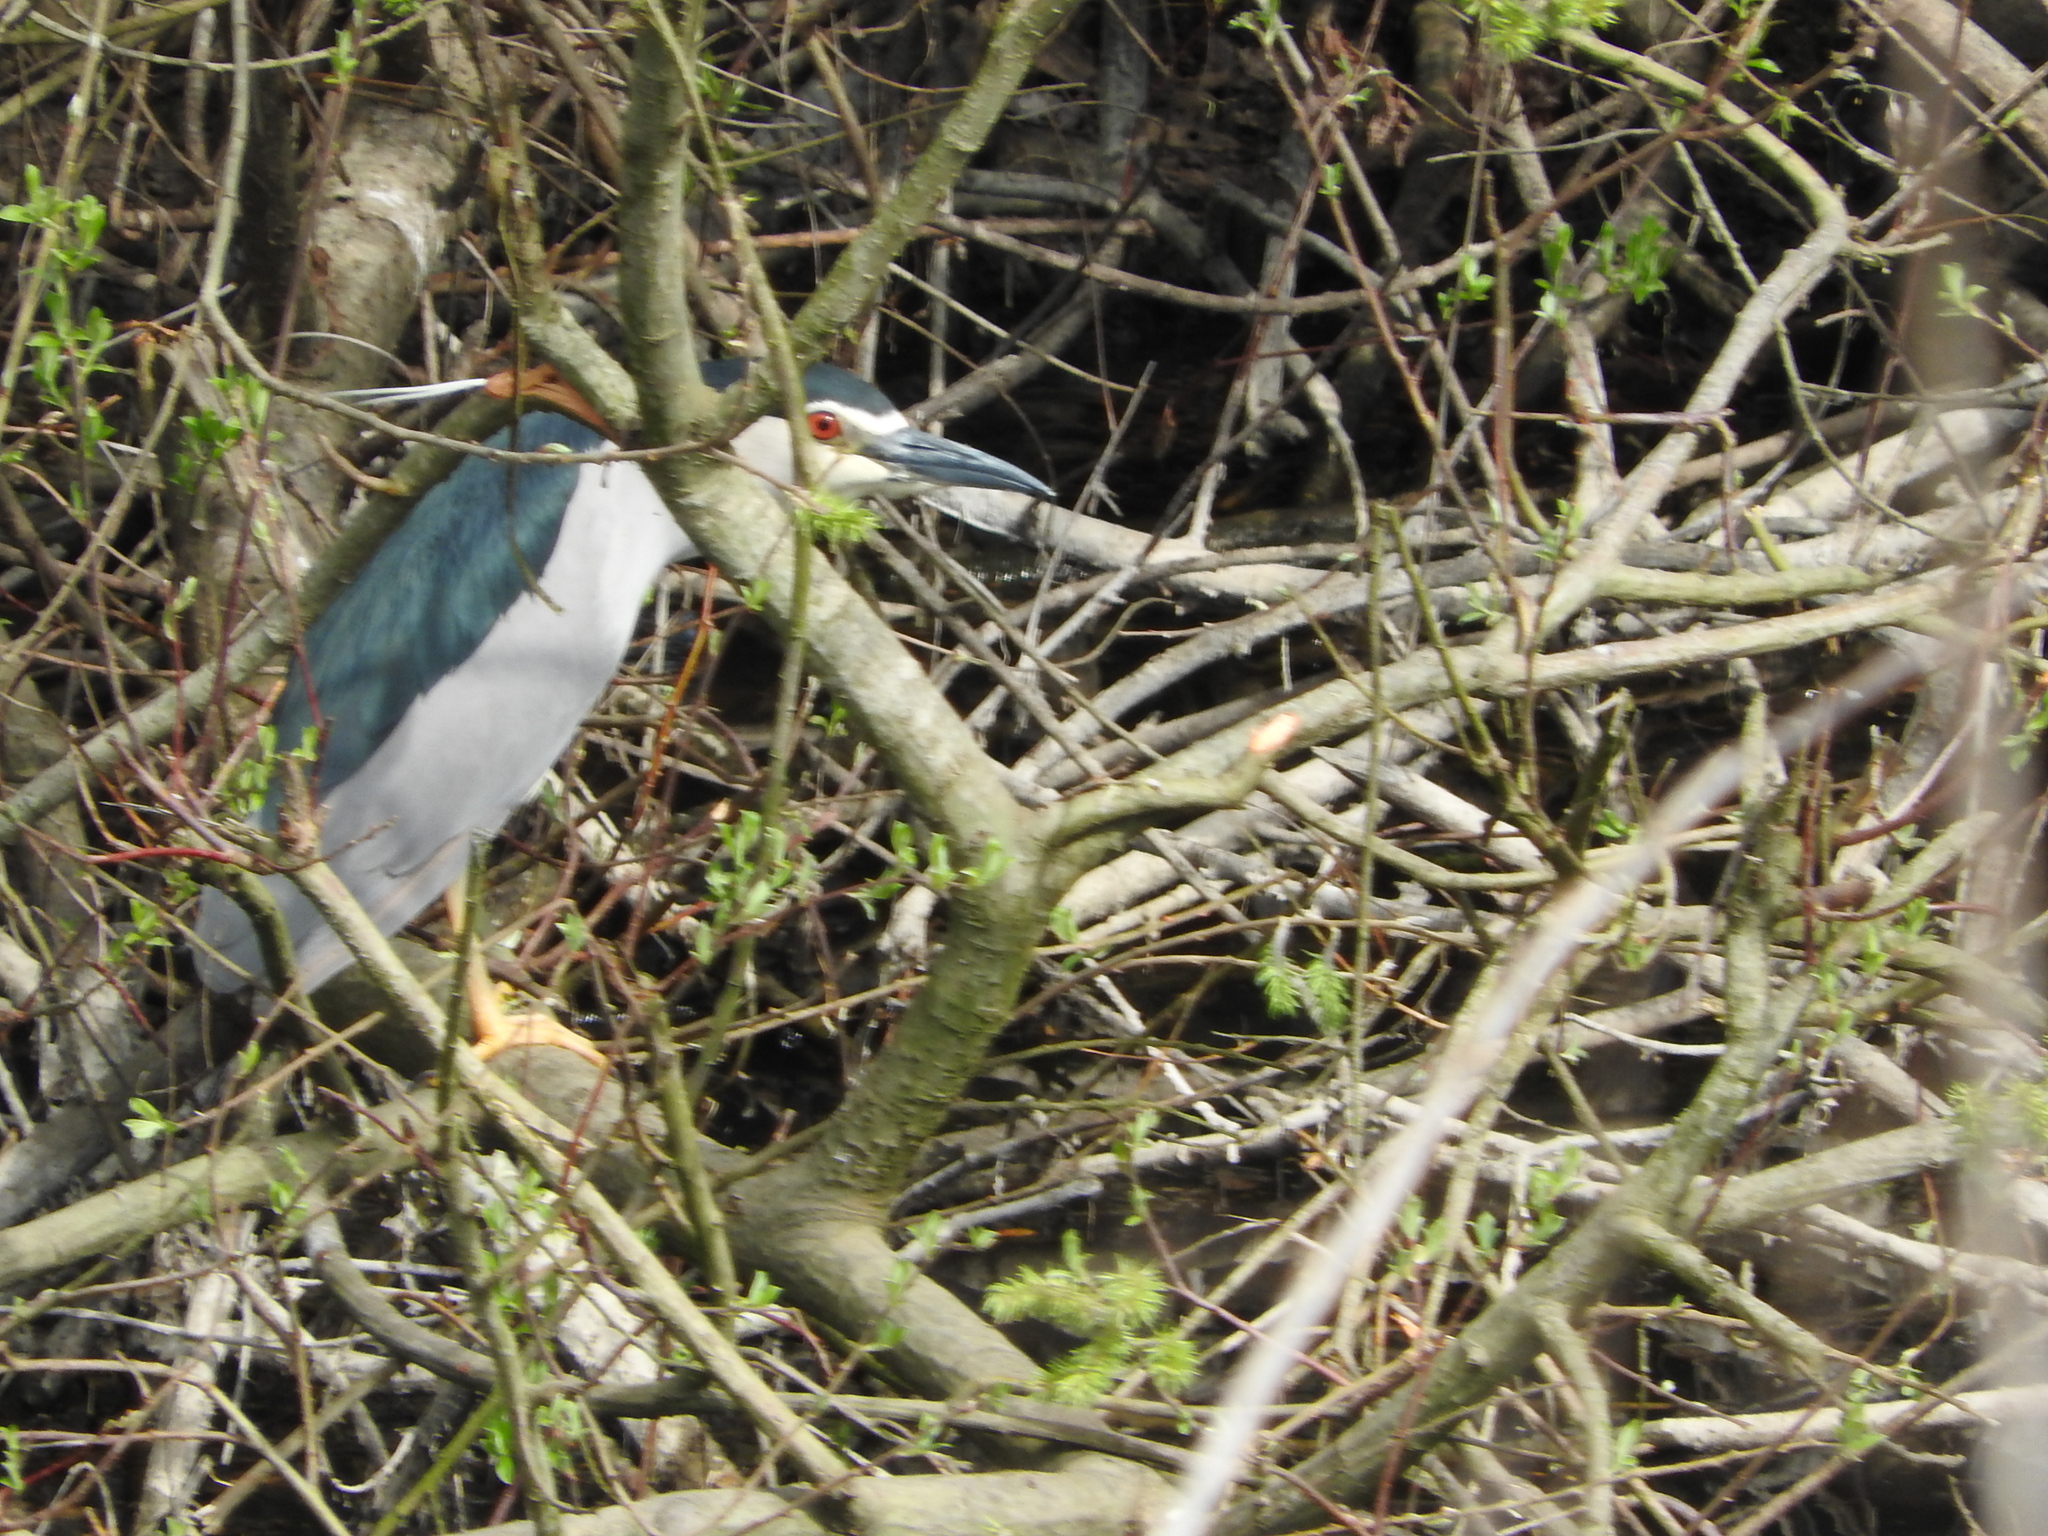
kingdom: Animalia
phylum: Chordata
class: Aves
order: Pelecaniformes
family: Ardeidae
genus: Nycticorax
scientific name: Nycticorax nycticorax
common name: Black-crowned night heron
